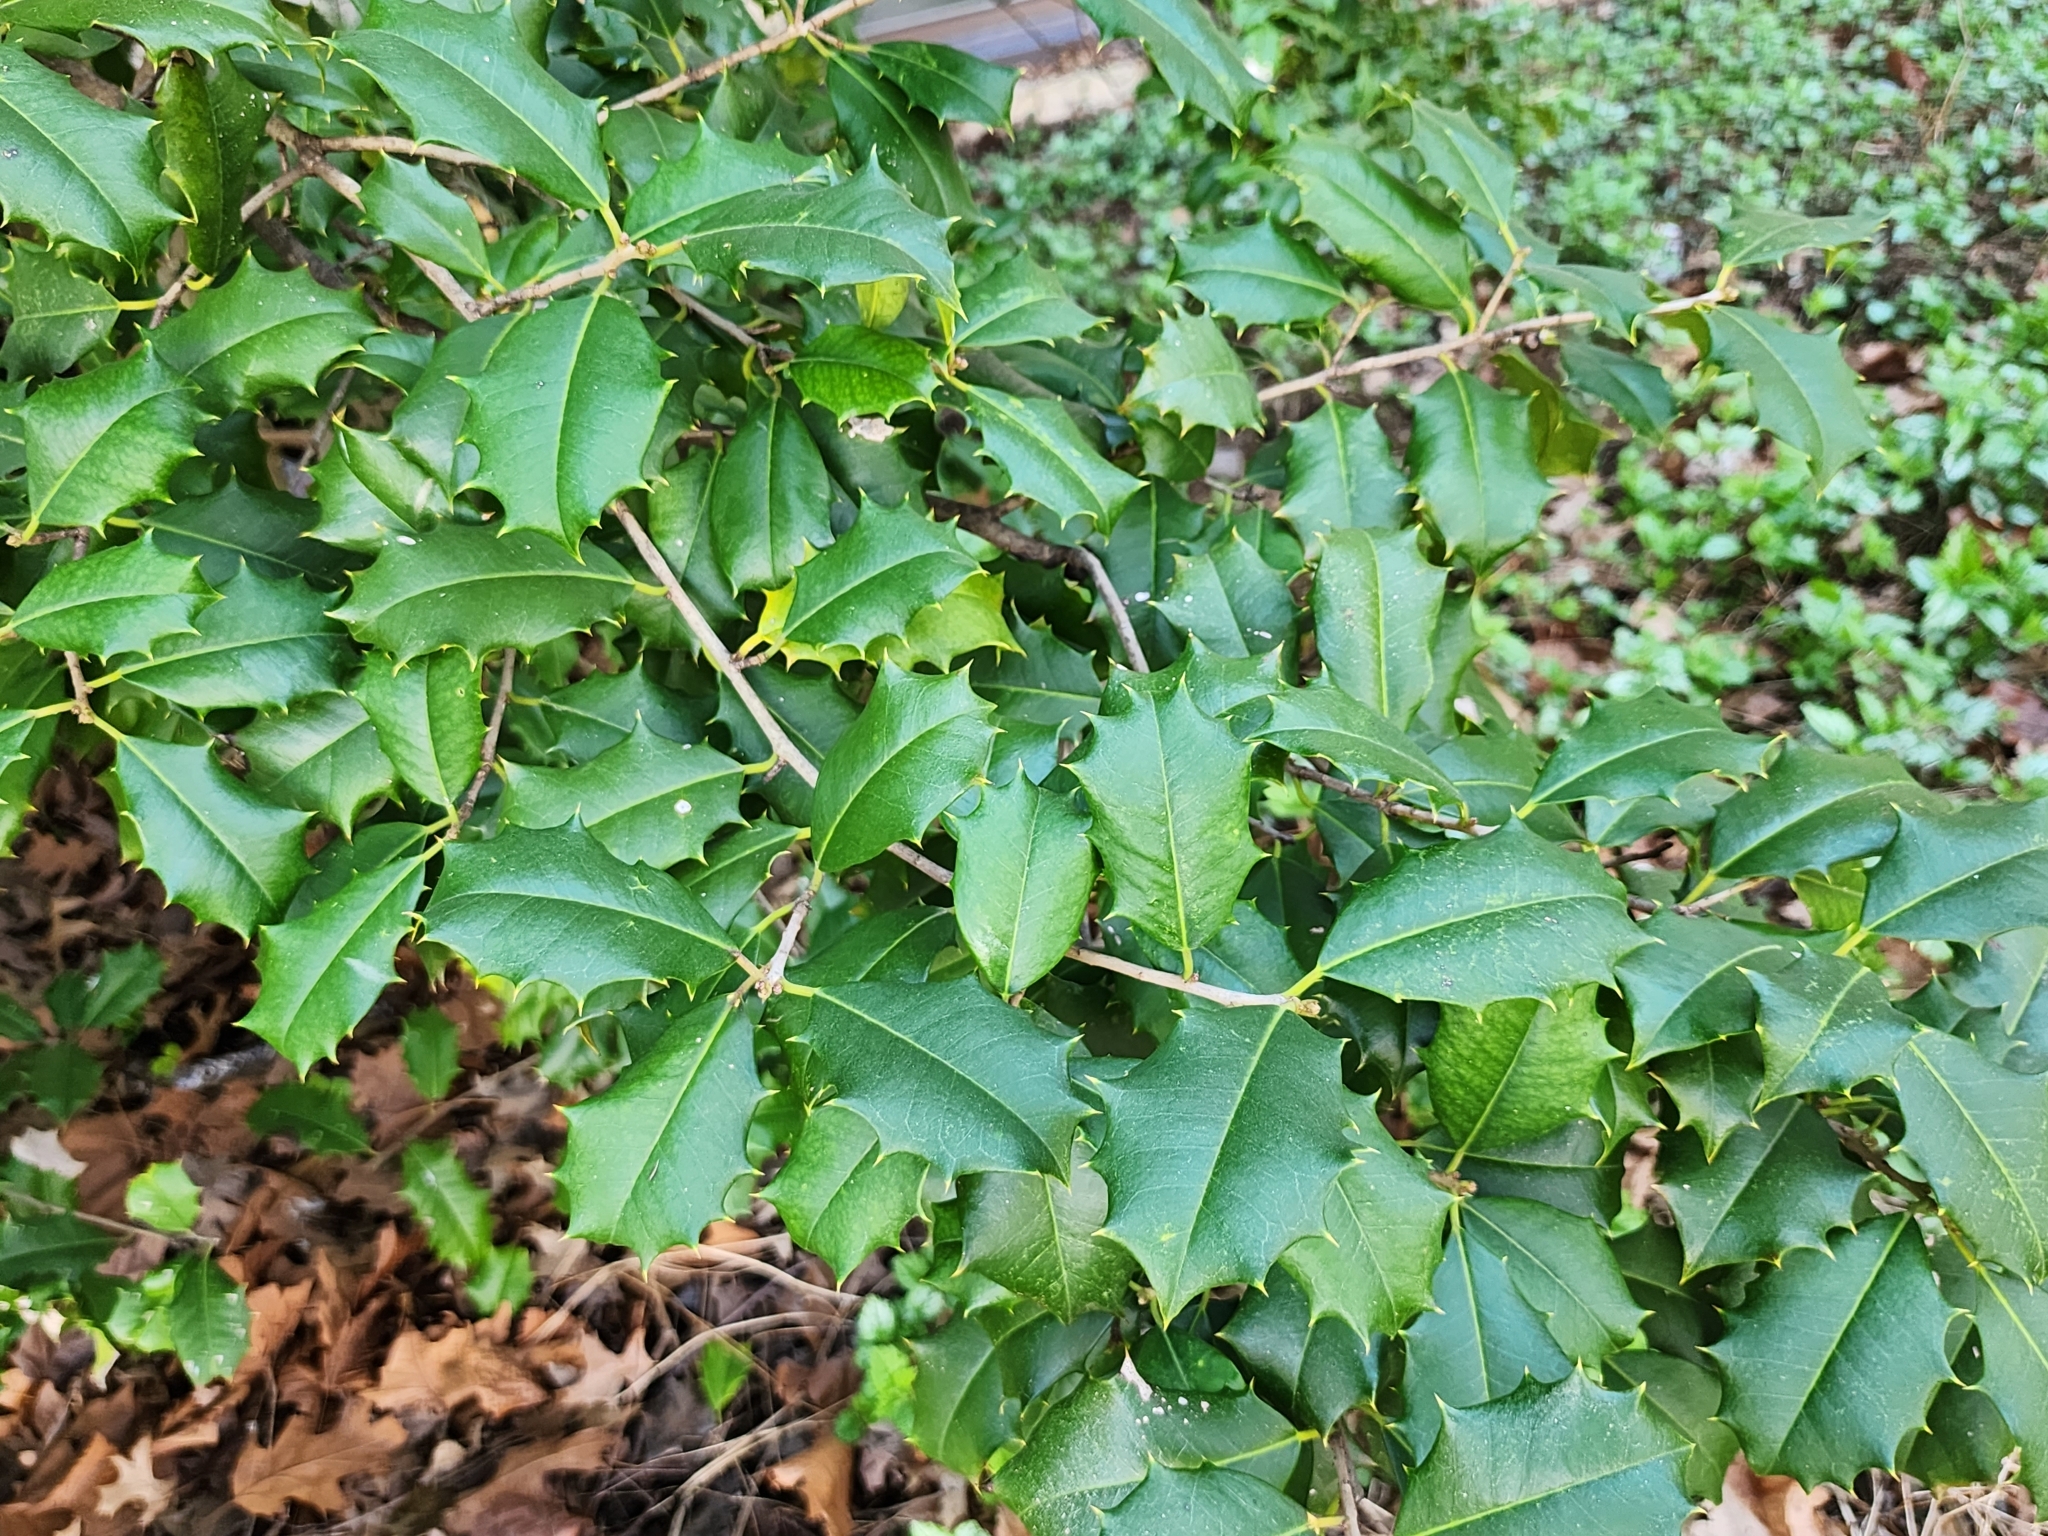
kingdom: Plantae
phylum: Tracheophyta
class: Magnoliopsida
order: Aquifoliales
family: Aquifoliaceae
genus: Ilex
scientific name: Ilex opaca
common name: American holly
